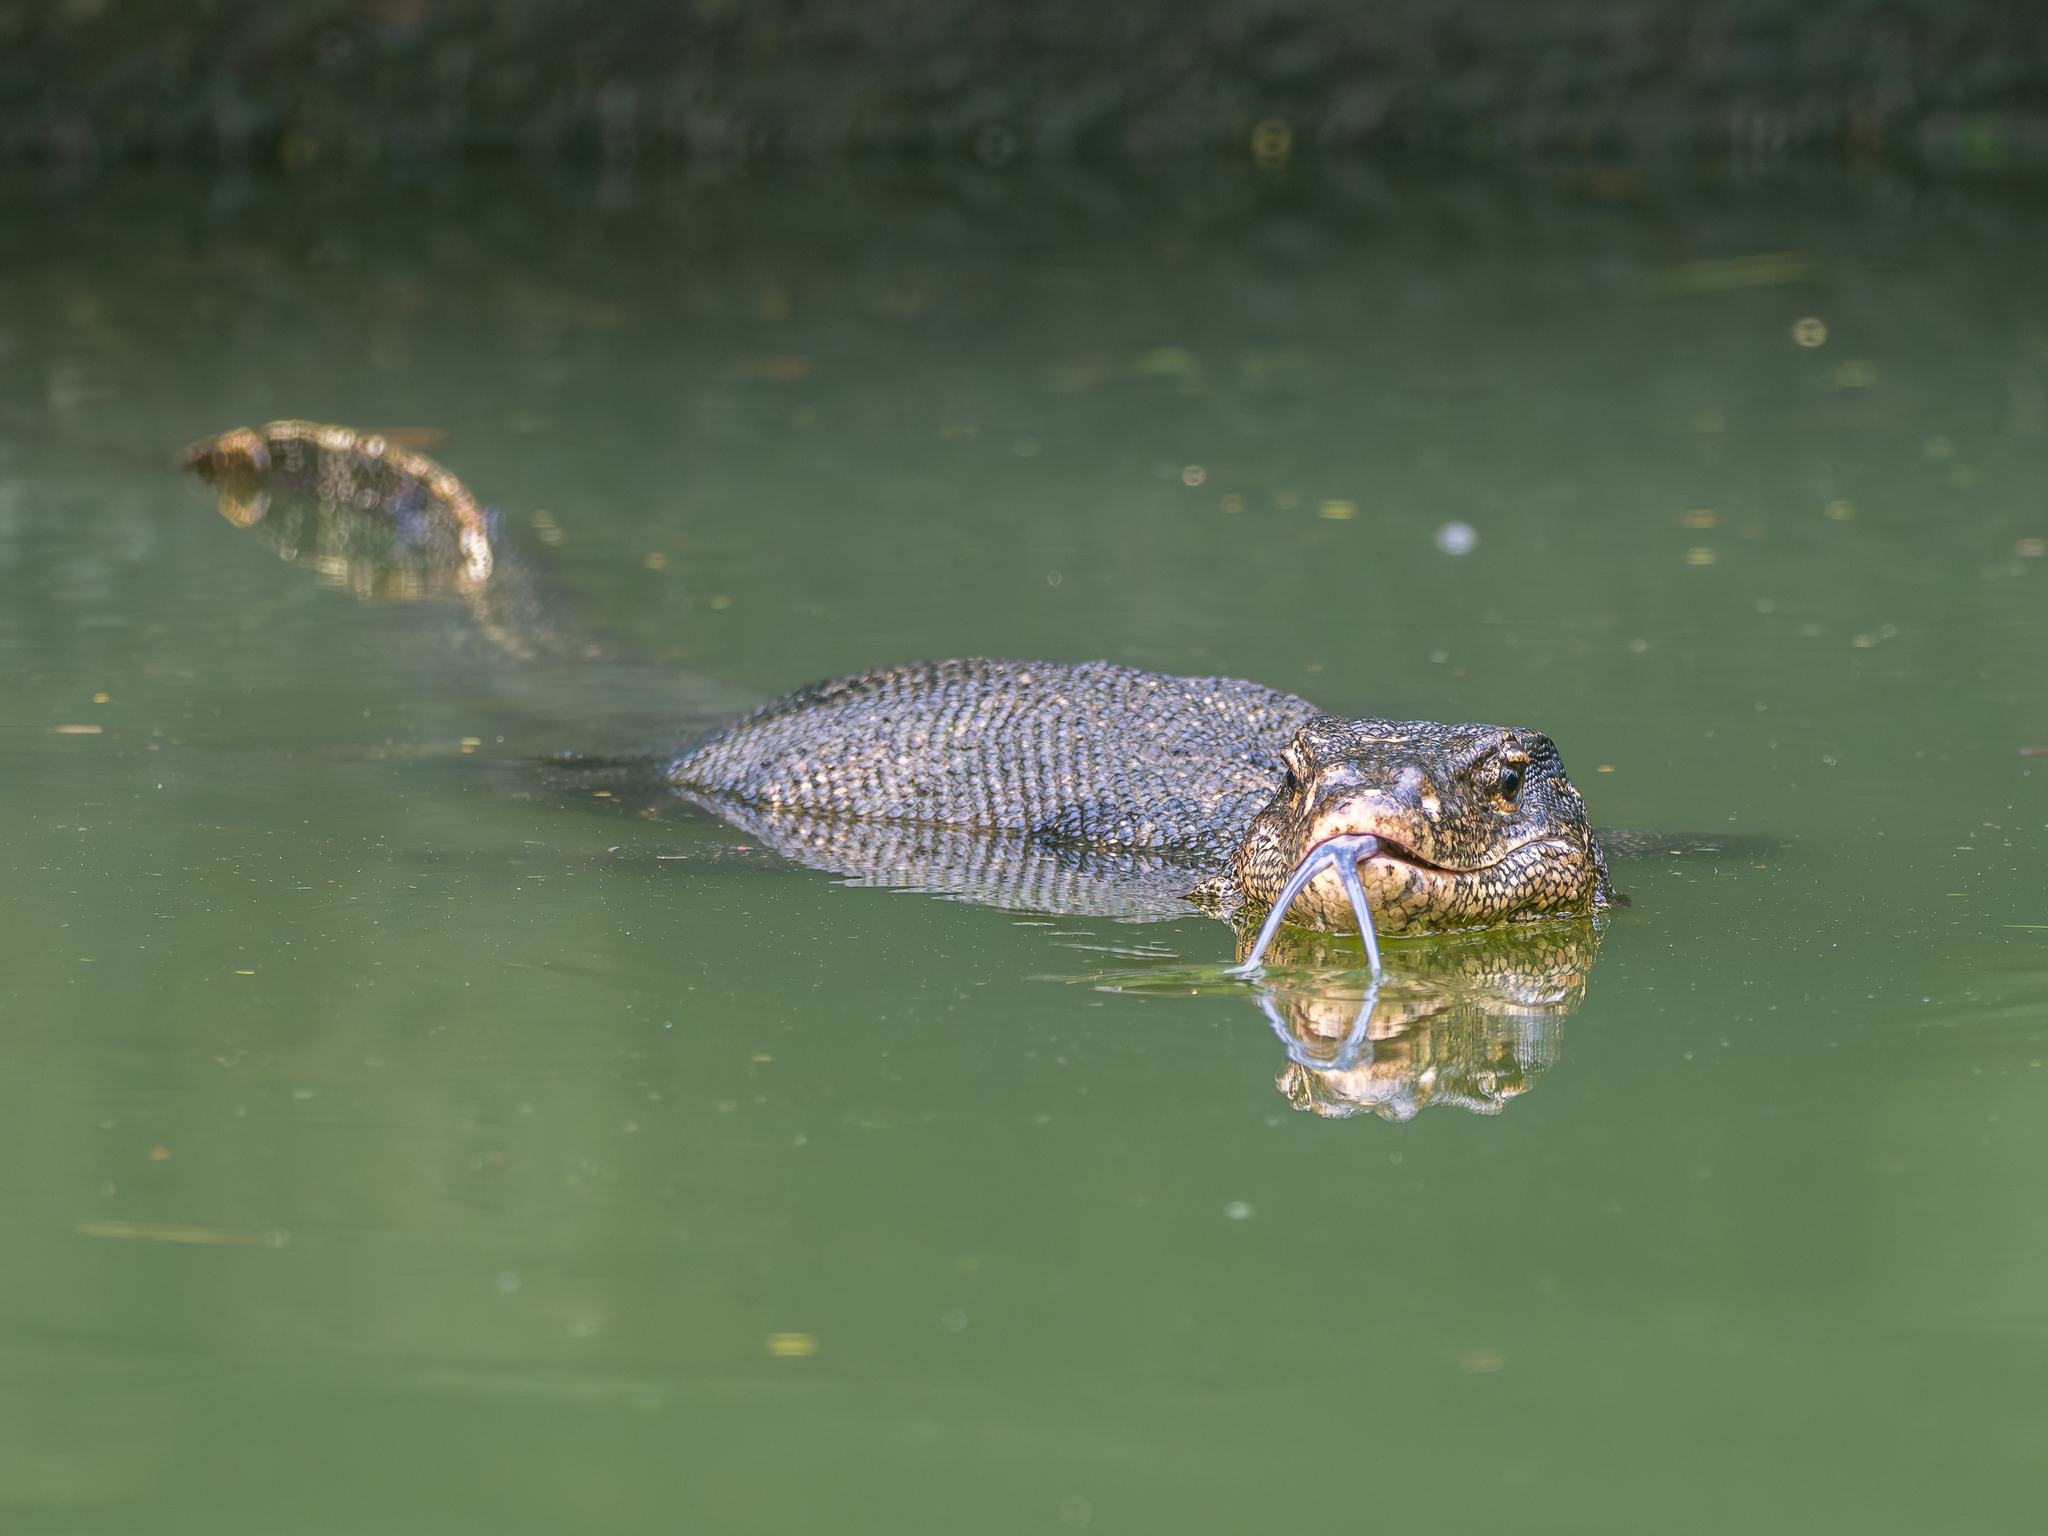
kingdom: Animalia
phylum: Chordata
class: Squamata
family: Varanidae
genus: Varanus
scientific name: Varanus salvator
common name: Common water monitor
